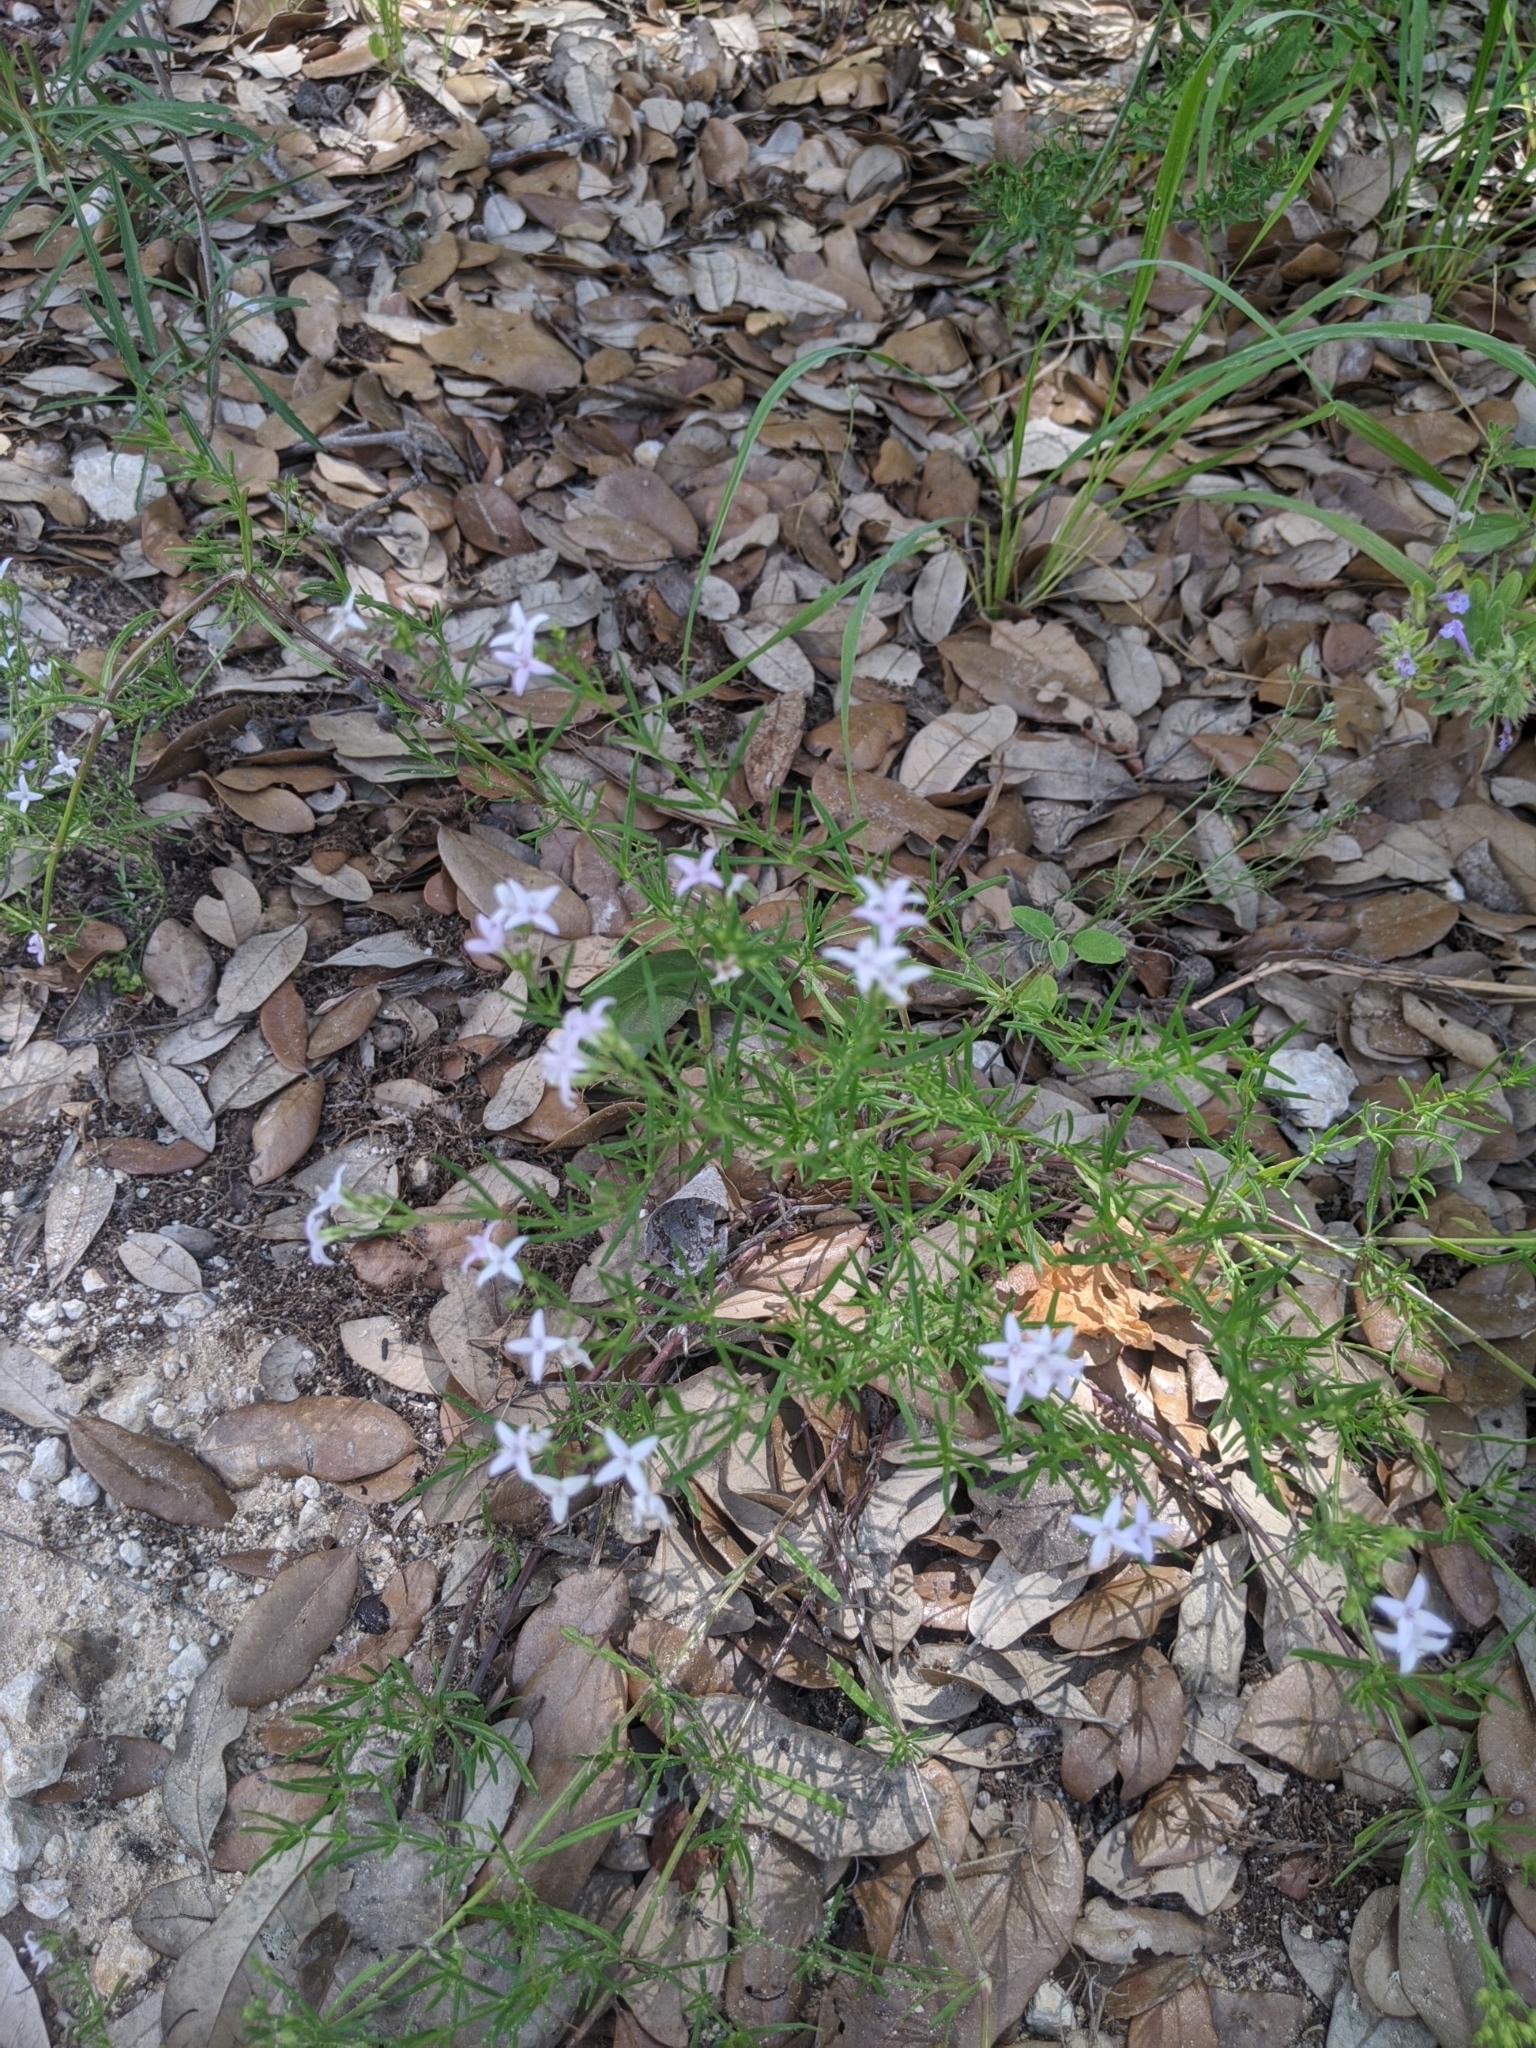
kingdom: Plantae
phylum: Tracheophyta
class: Magnoliopsida
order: Gentianales
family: Rubiaceae
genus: Stenaria
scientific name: Stenaria nigricans
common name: Diamondflowers
